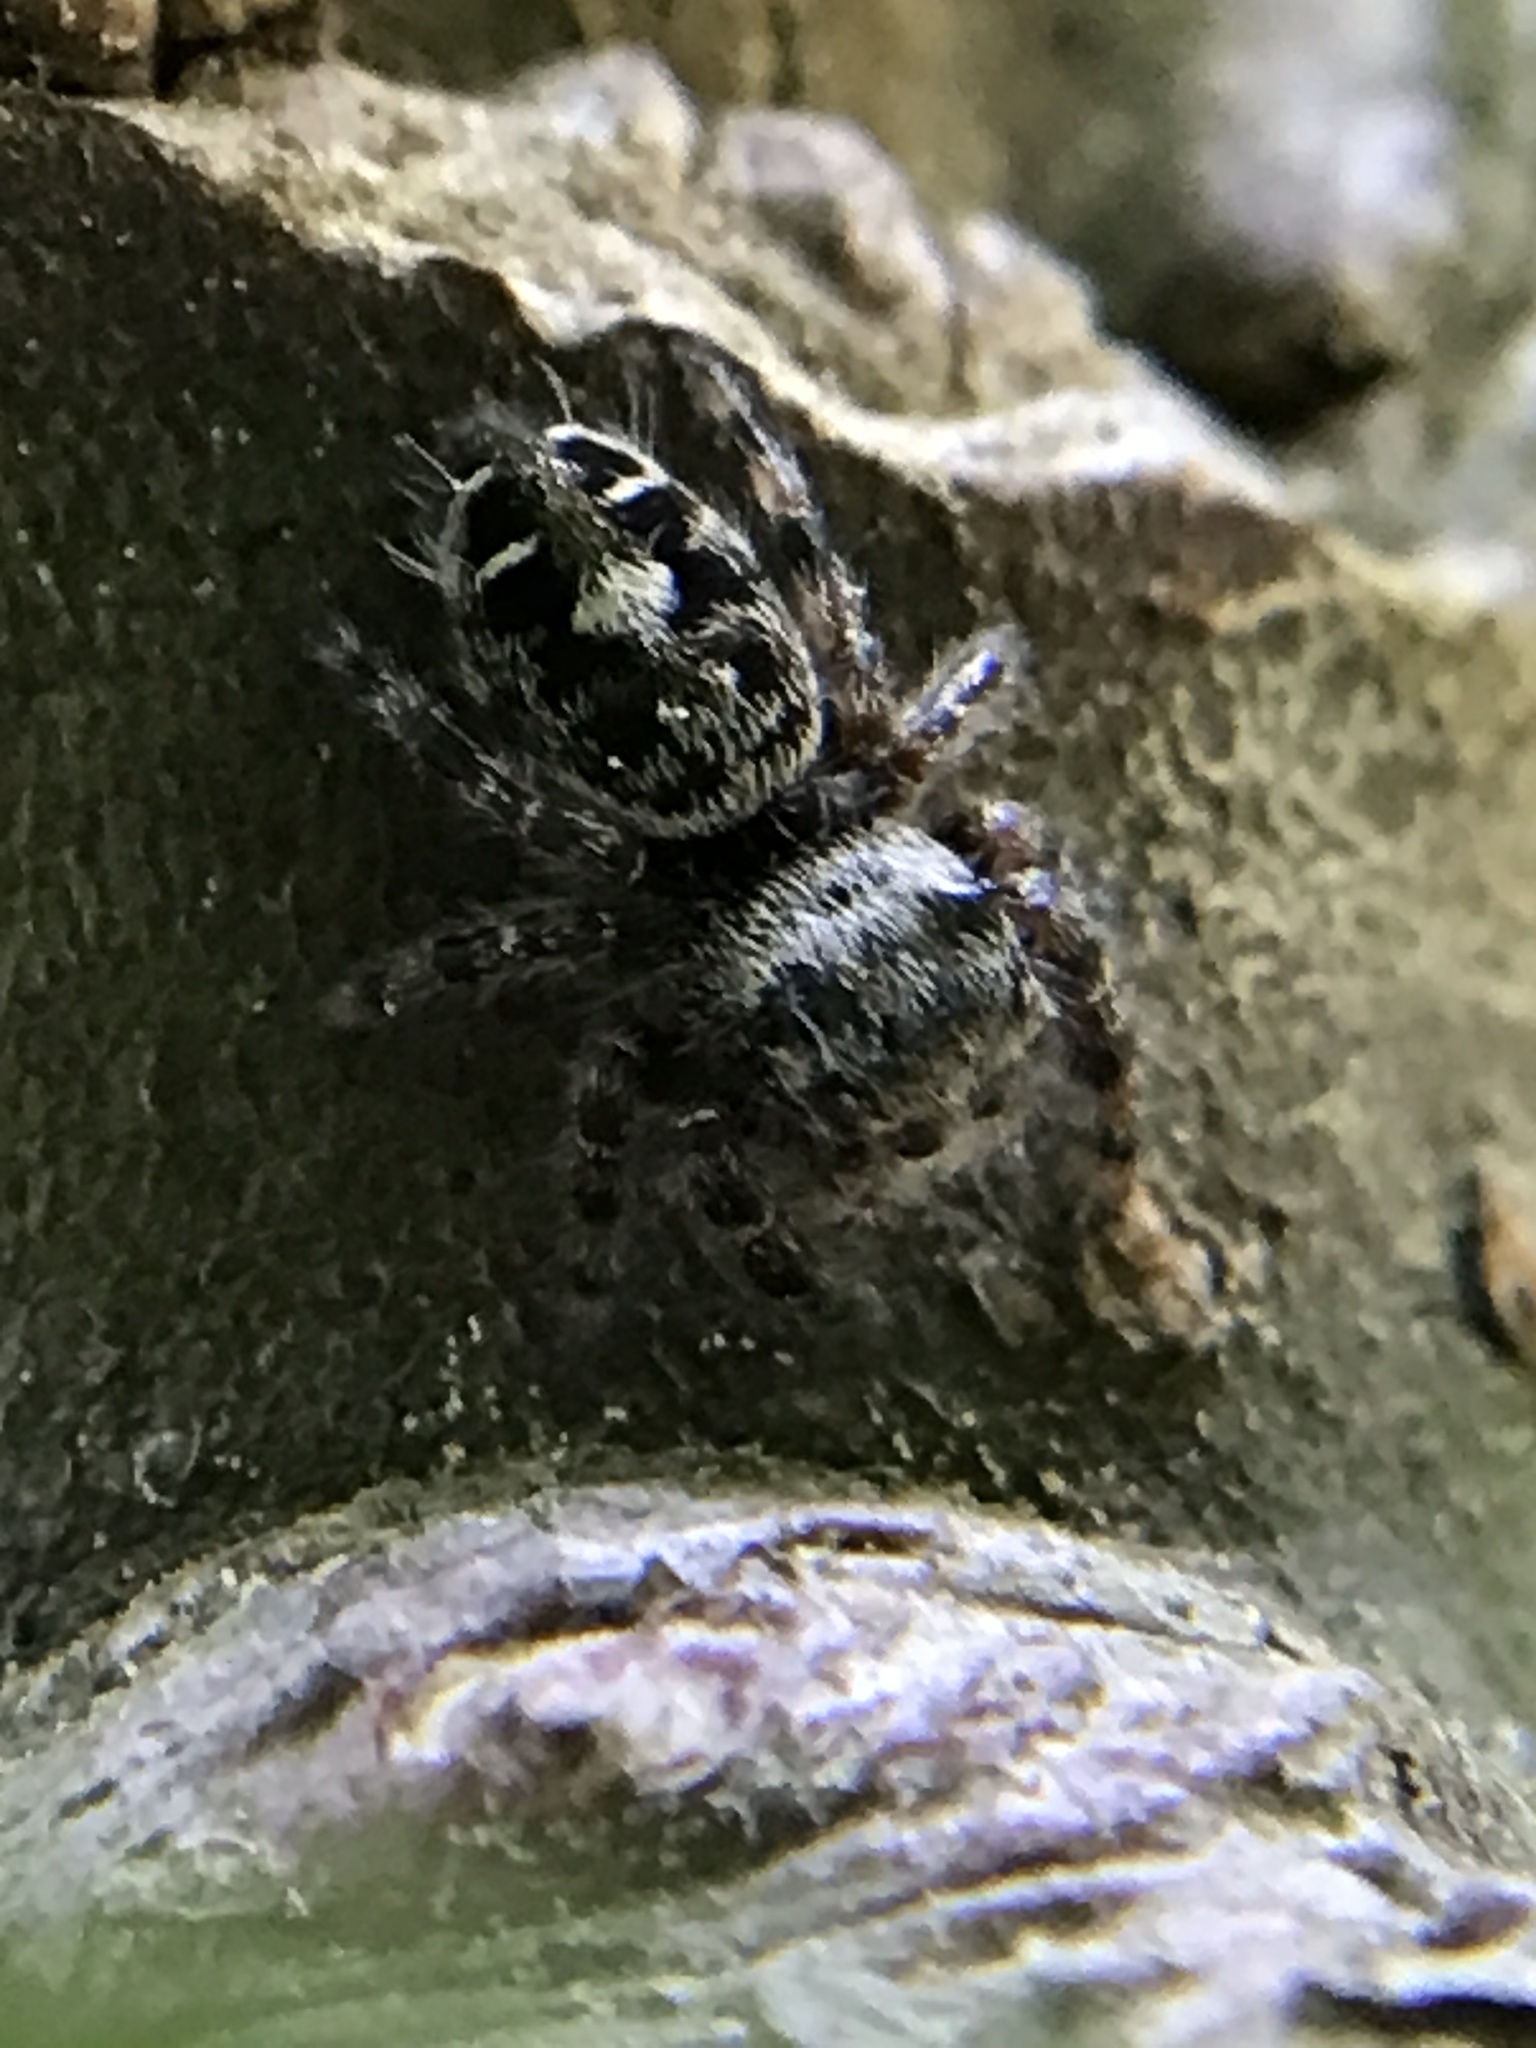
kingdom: Animalia
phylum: Arthropoda
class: Arachnida
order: Araneae
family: Salticidae
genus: Phidippus
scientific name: Phidippus putnami
